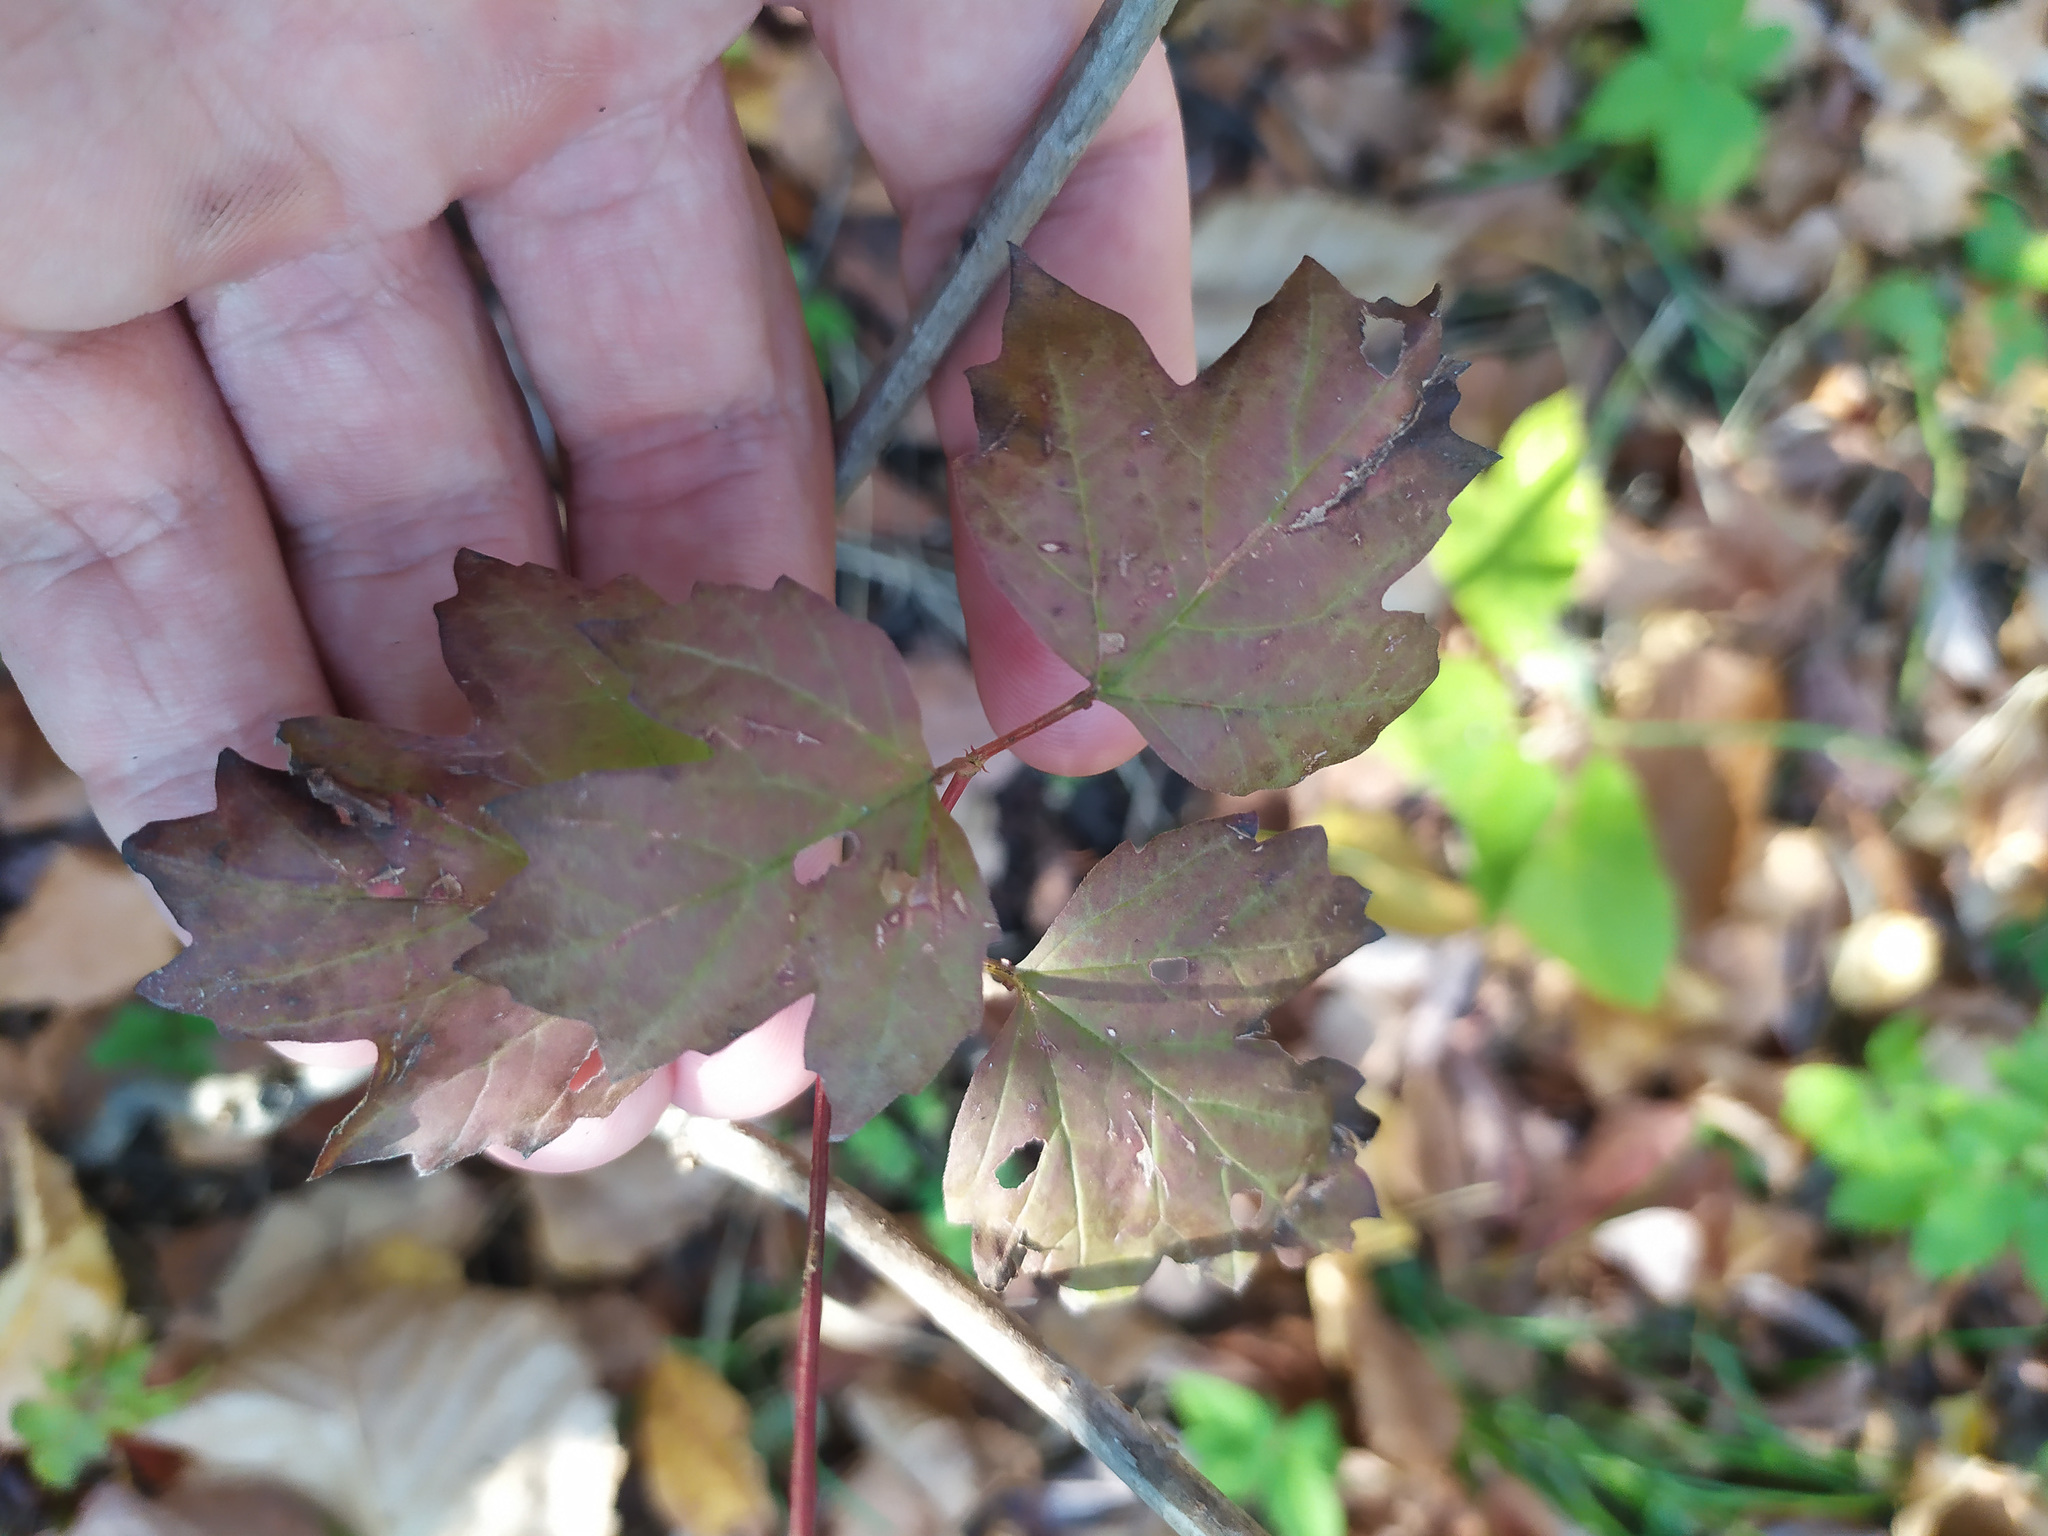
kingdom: Plantae
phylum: Tracheophyta
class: Magnoliopsida
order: Dipsacales
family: Viburnaceae
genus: Viburnum
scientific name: Viburnum opulus
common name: Guelder-rose
